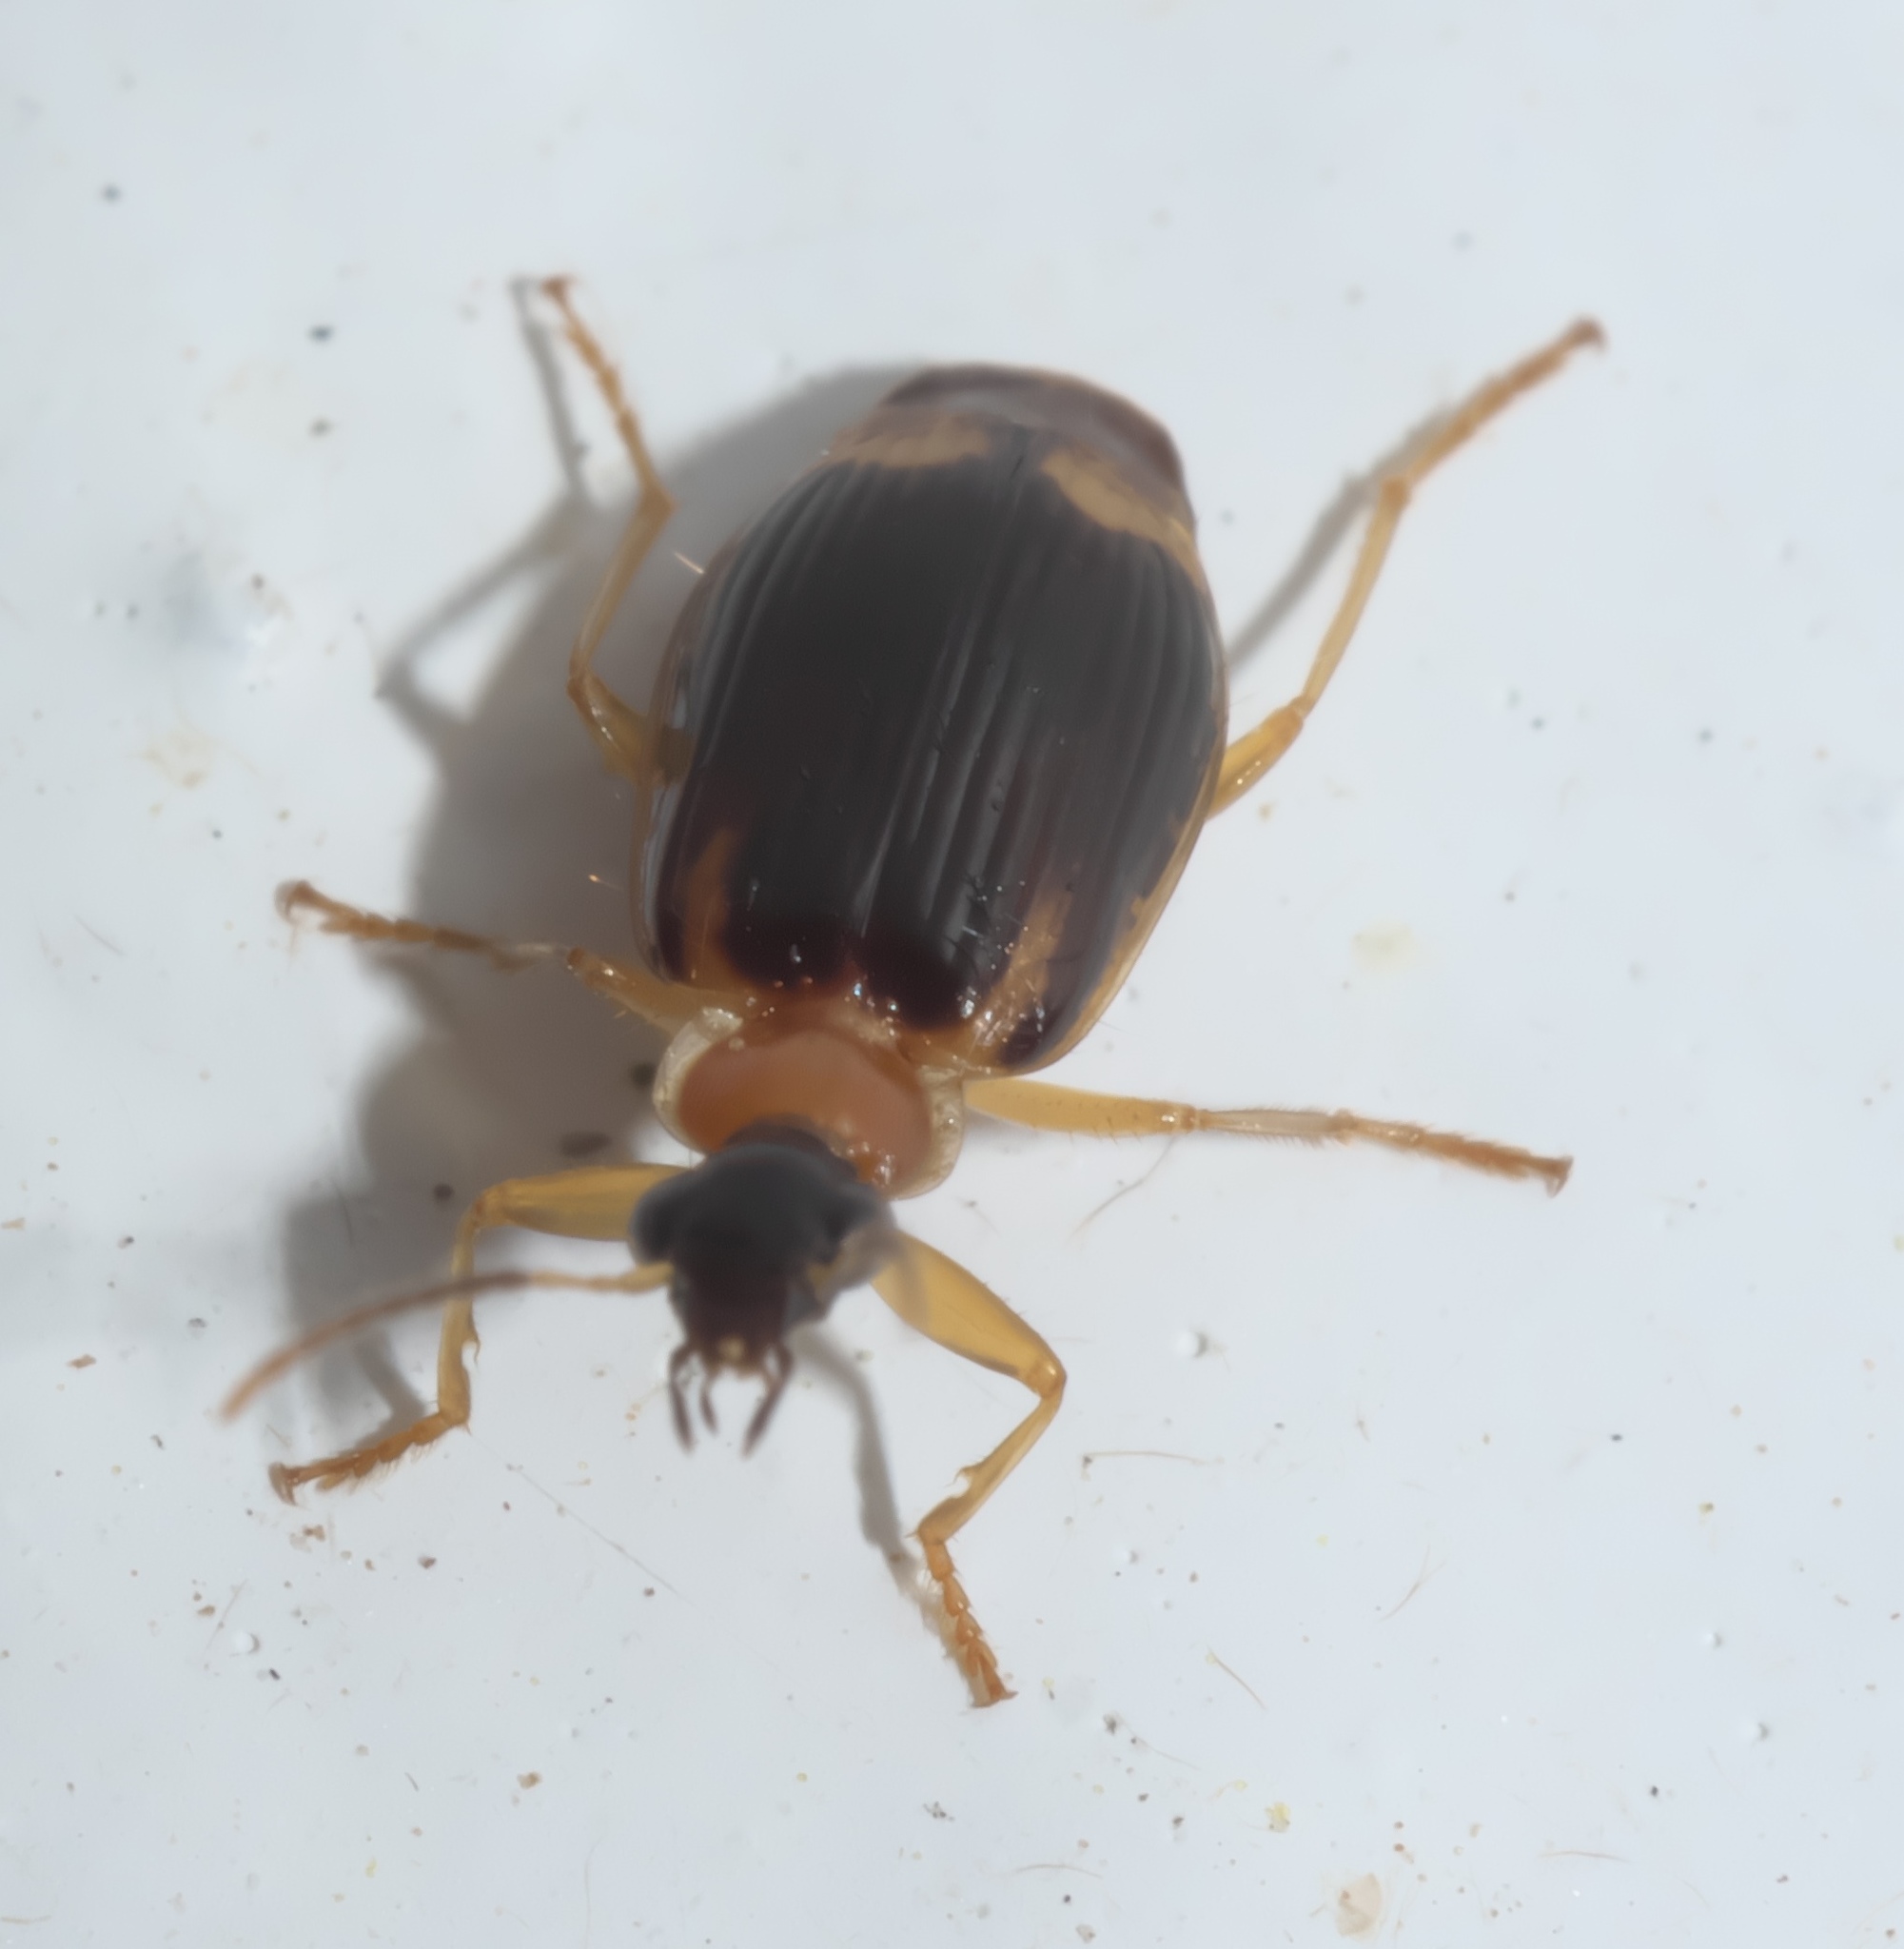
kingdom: Animalia
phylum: Arthropoda
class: Insecta
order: Coleoptera
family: Carabidae
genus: Lebia
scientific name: Lebia analis
